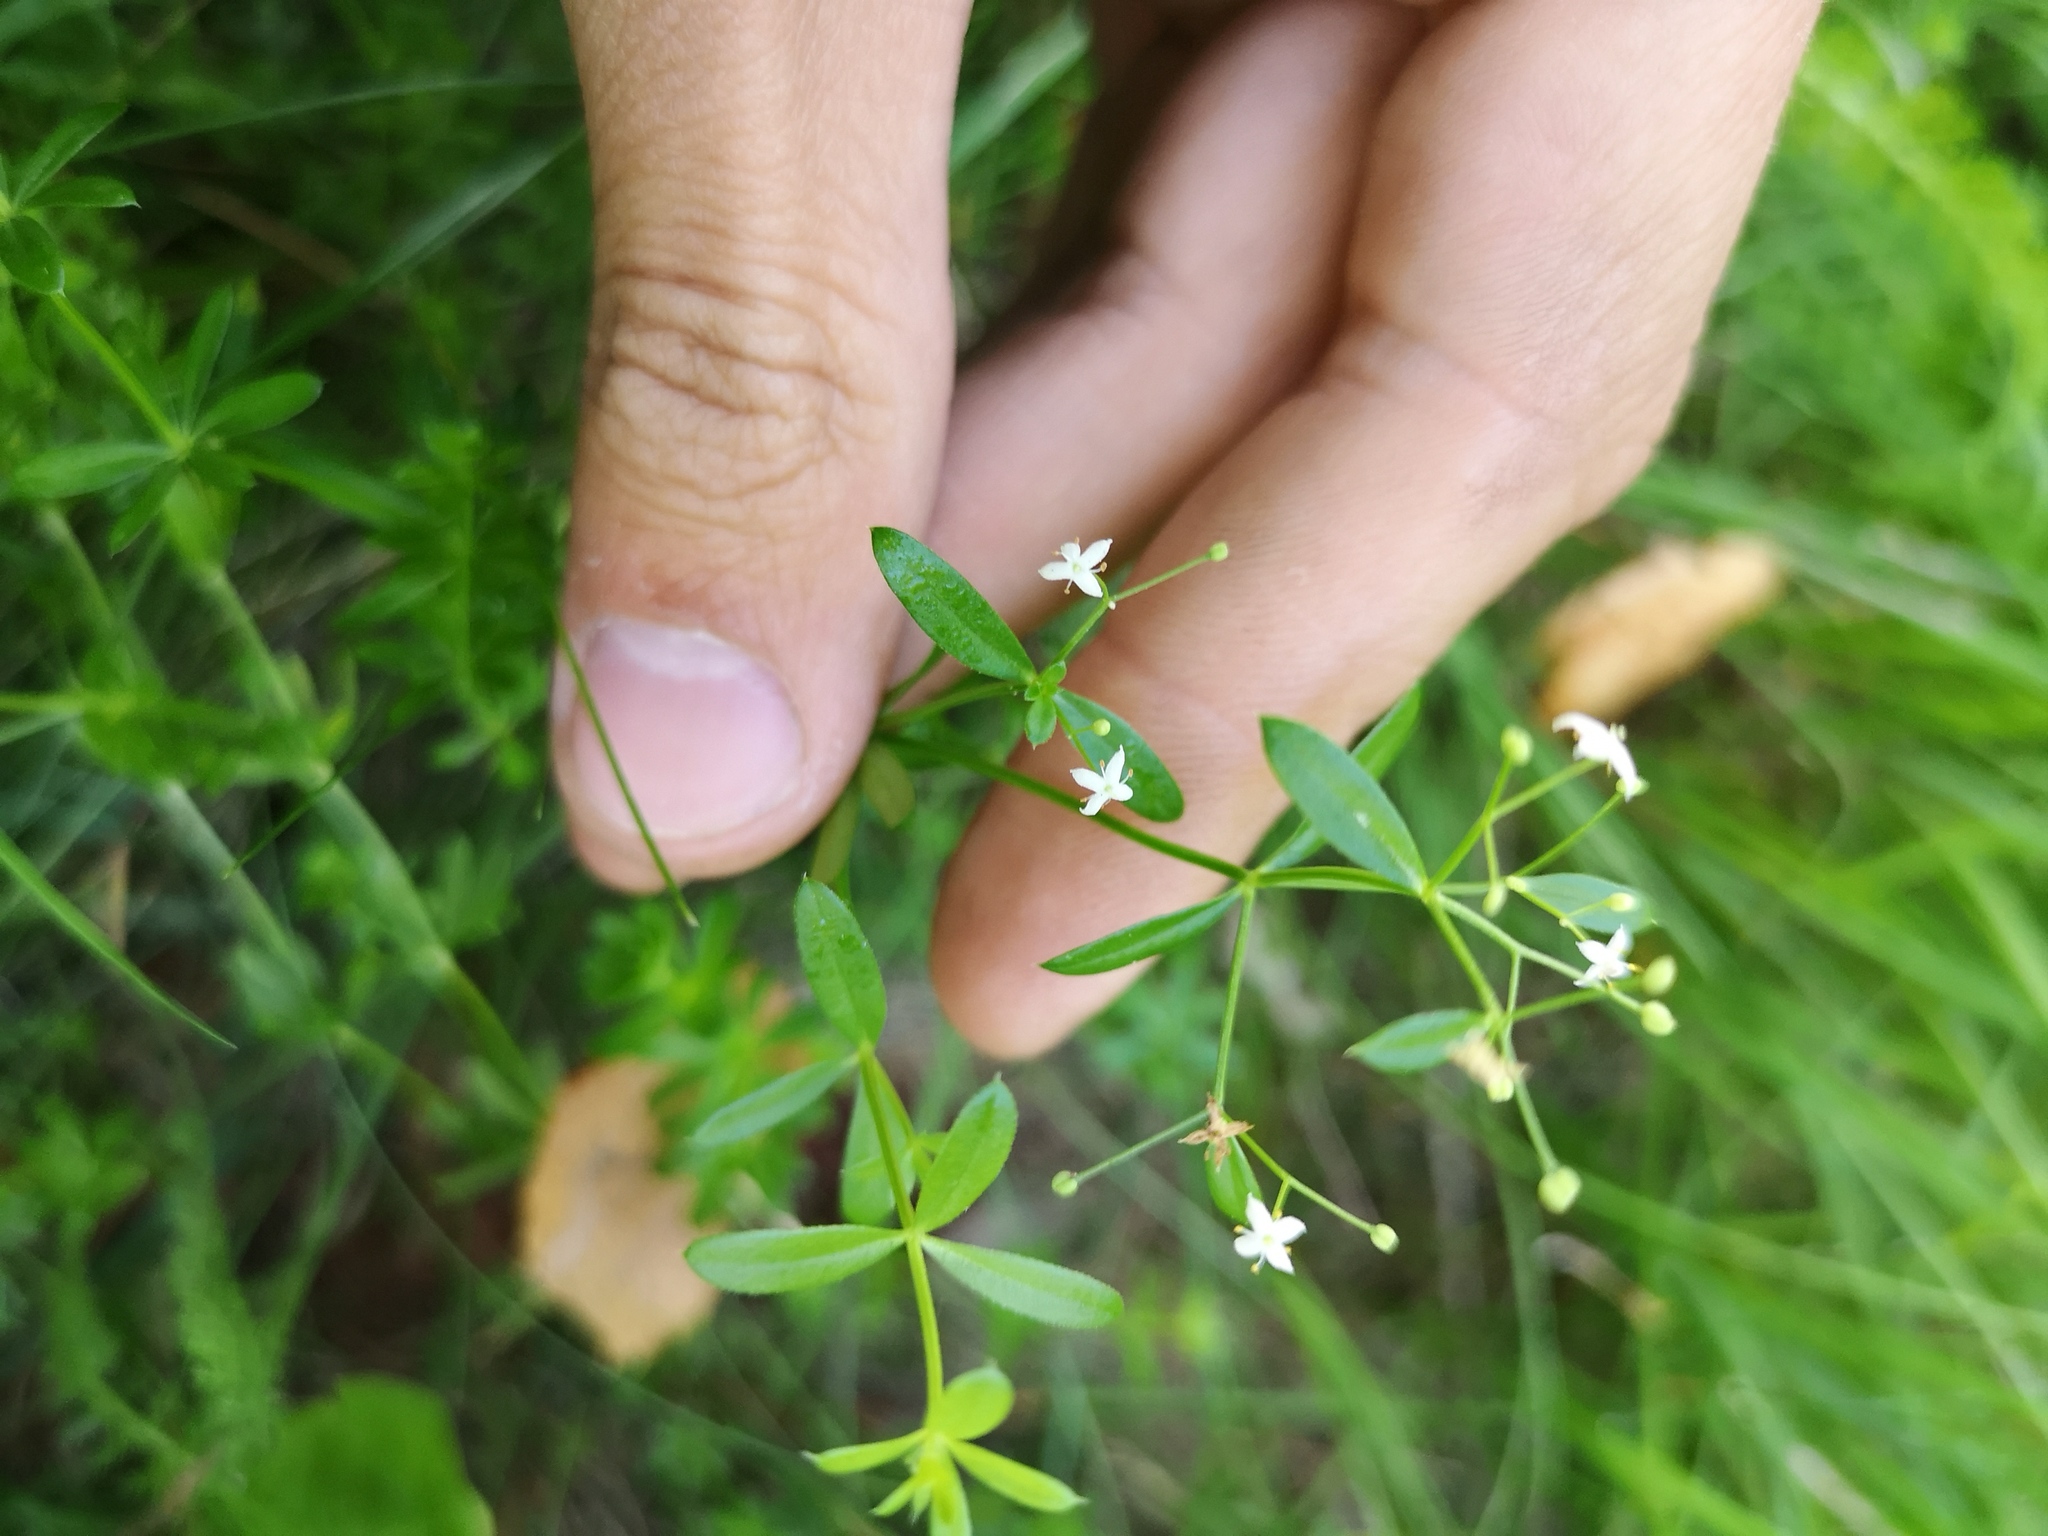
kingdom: Plantae
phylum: Tracheophyta
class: Magnoliopsida
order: Gentianales
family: Rubiaceae
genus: Galium
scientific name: Galium elongatum
